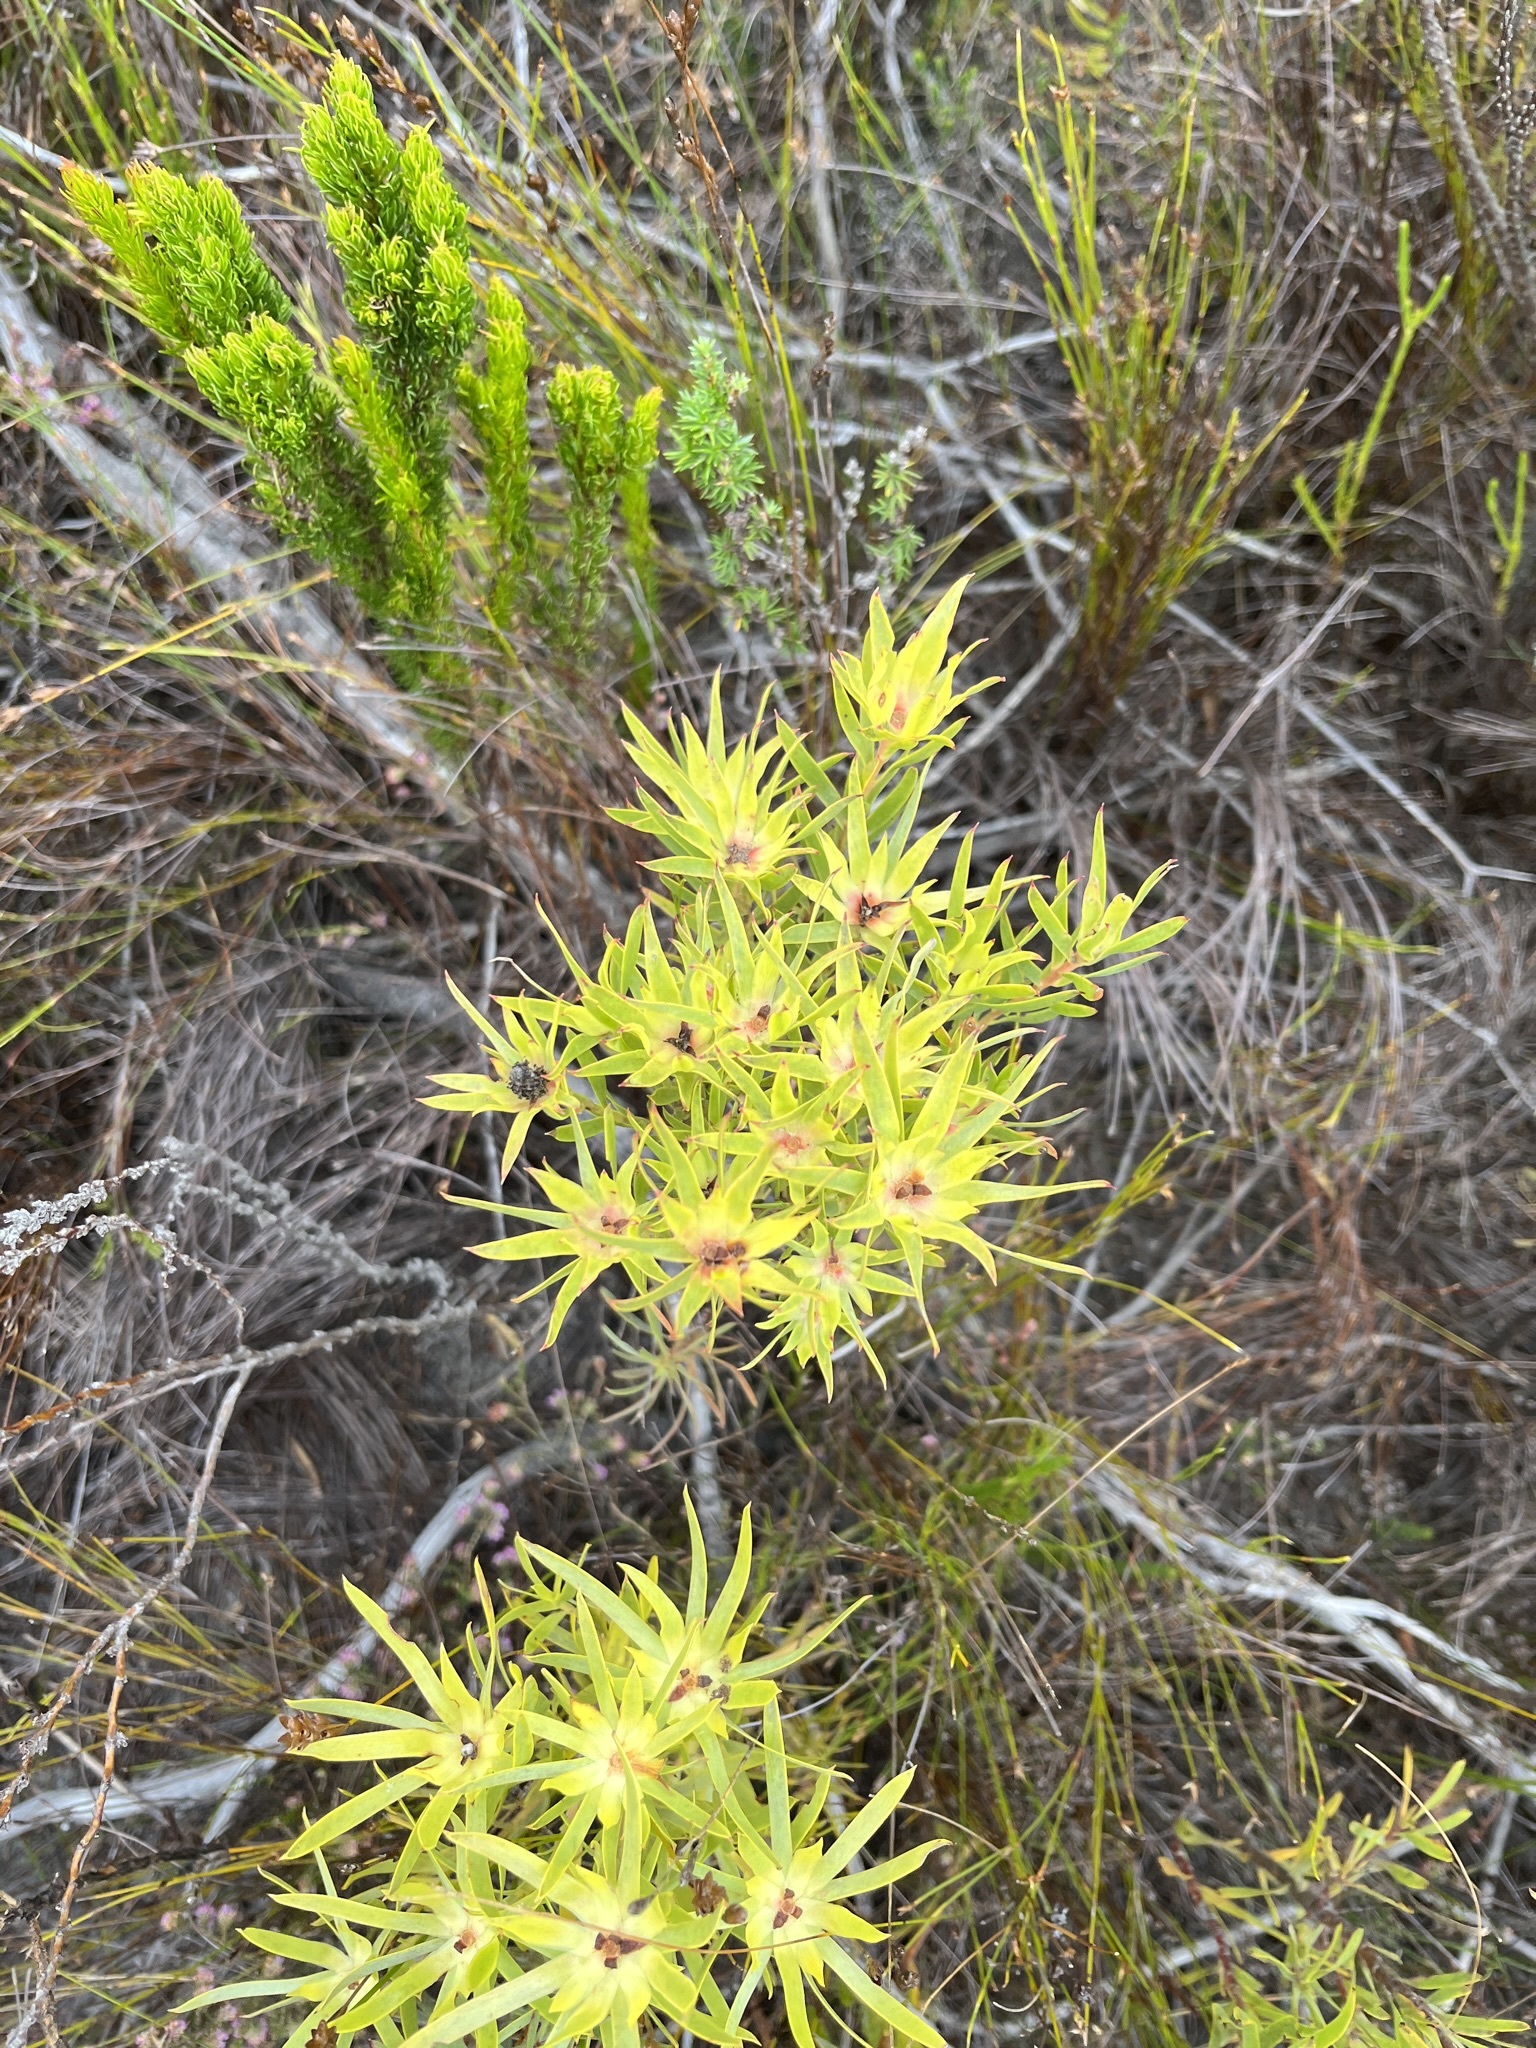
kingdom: Plantae
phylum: Tracheophyta
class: Magnoliopsida
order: Proteales
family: Proteaceae
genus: Leucadendron
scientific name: Leucadendron xanthoconus
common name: Sickle-leaf conebush
